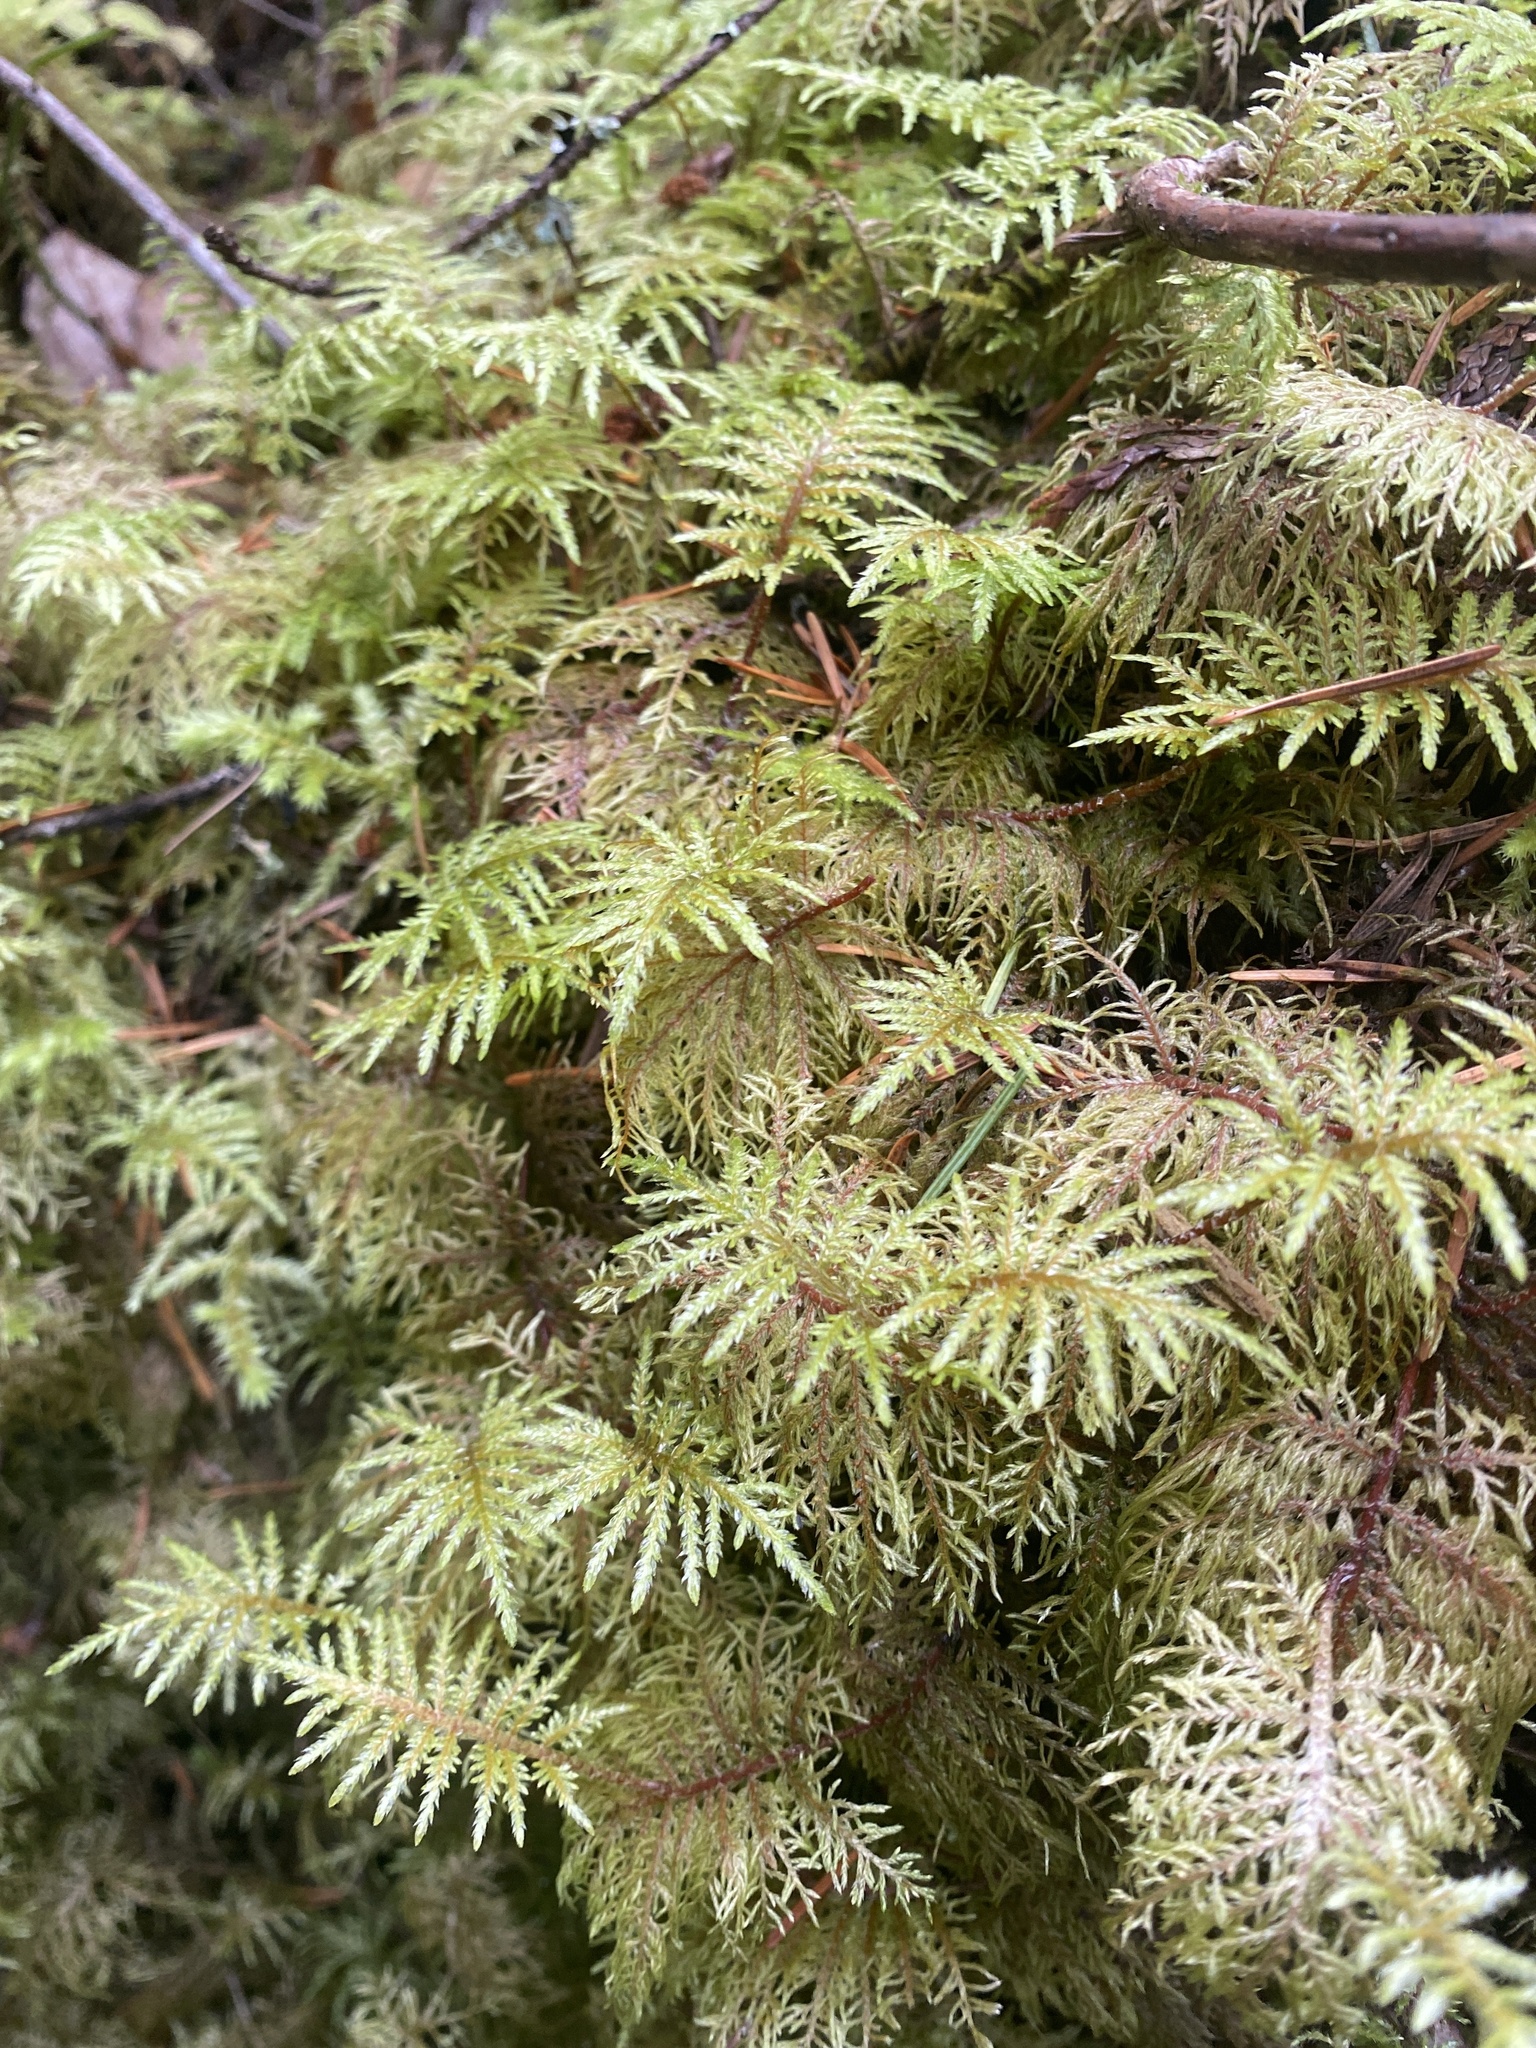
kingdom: Plantae
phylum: Bryophyta
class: Bryopsida
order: Hypnales
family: Hylocomiaceae
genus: Hylocomium
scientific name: Hylocomium splendens
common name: Stairstep moss
